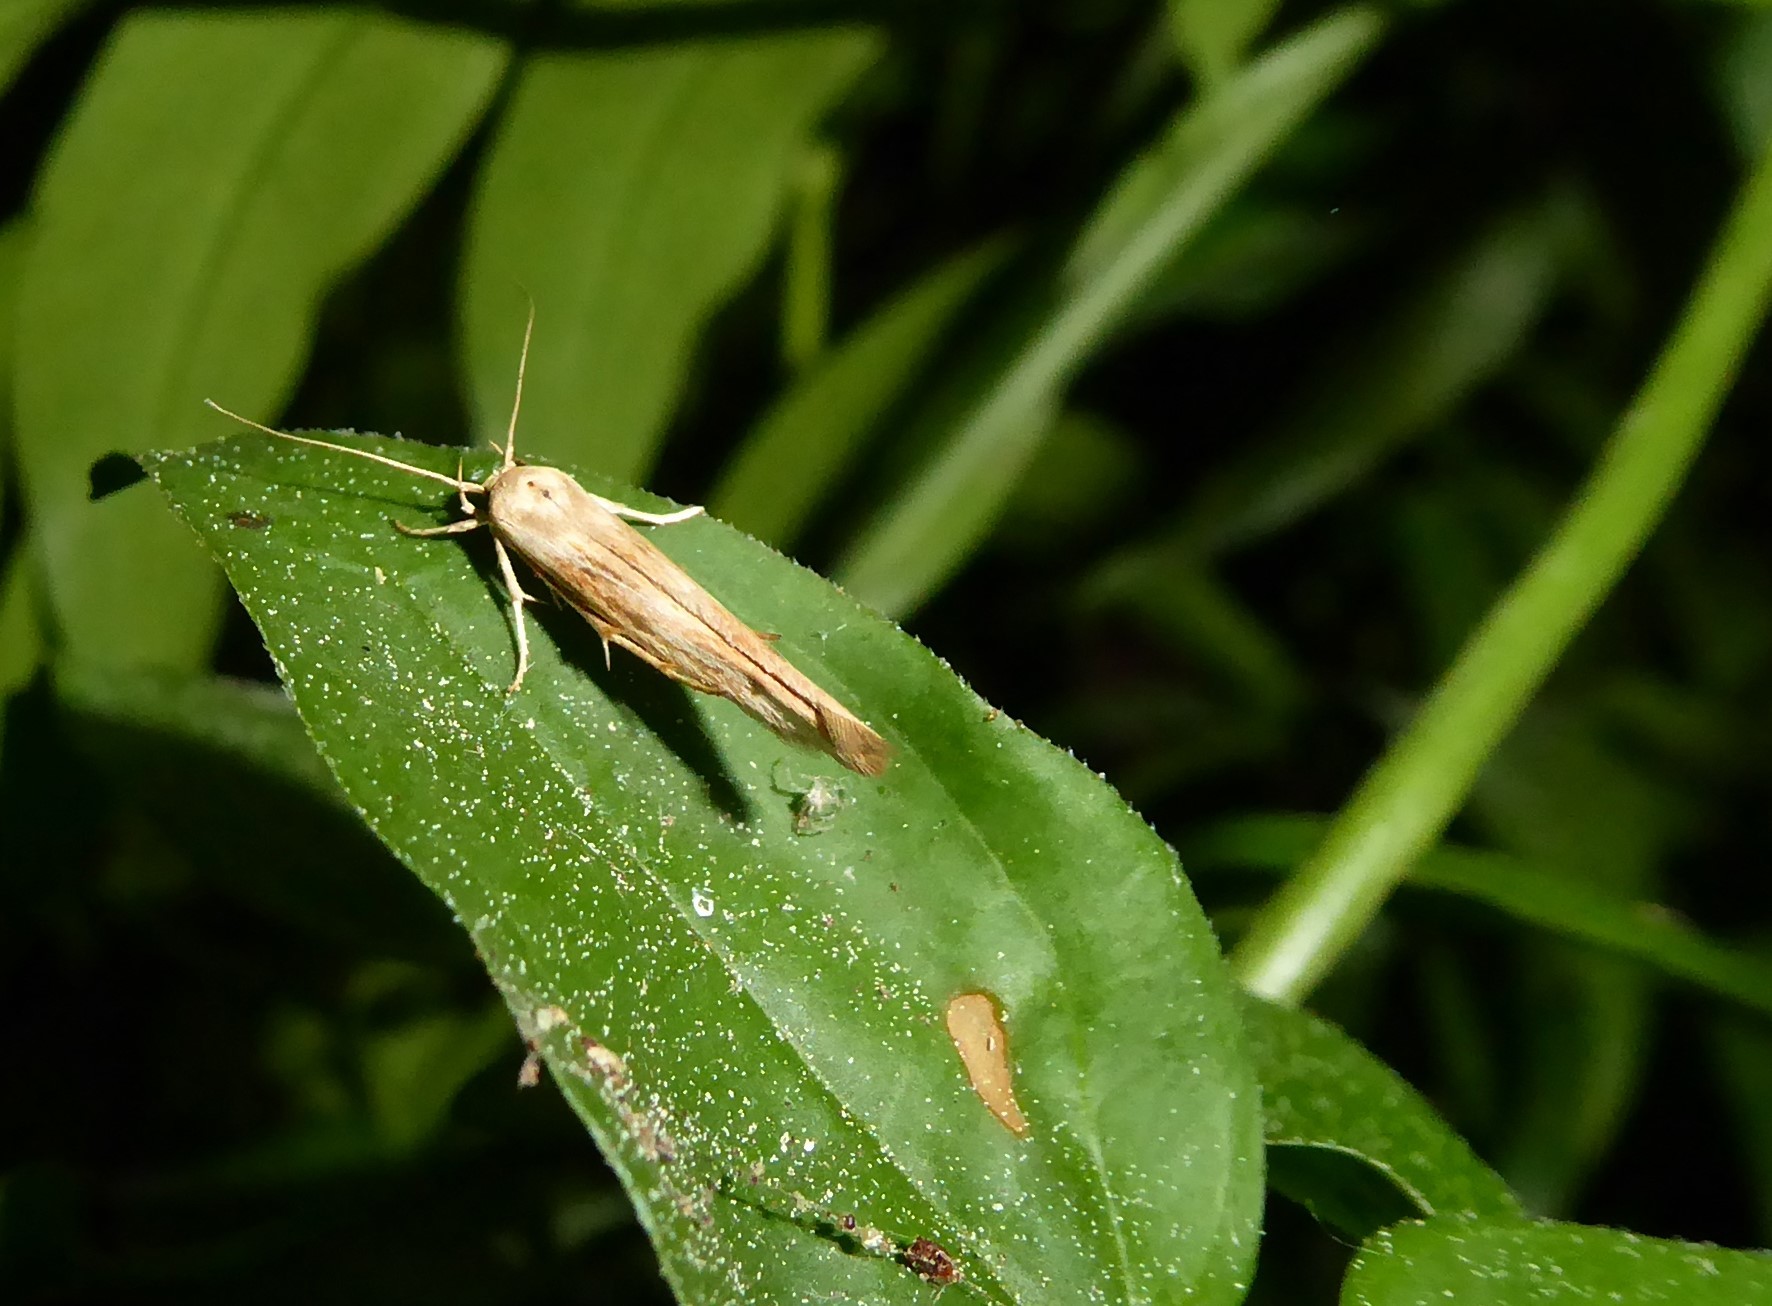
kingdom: Animalia
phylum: Arthropoda
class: Insecta
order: Lepidoptera
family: Stathmopodidae
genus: Stathmopoda
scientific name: Stathmopoda aposema
